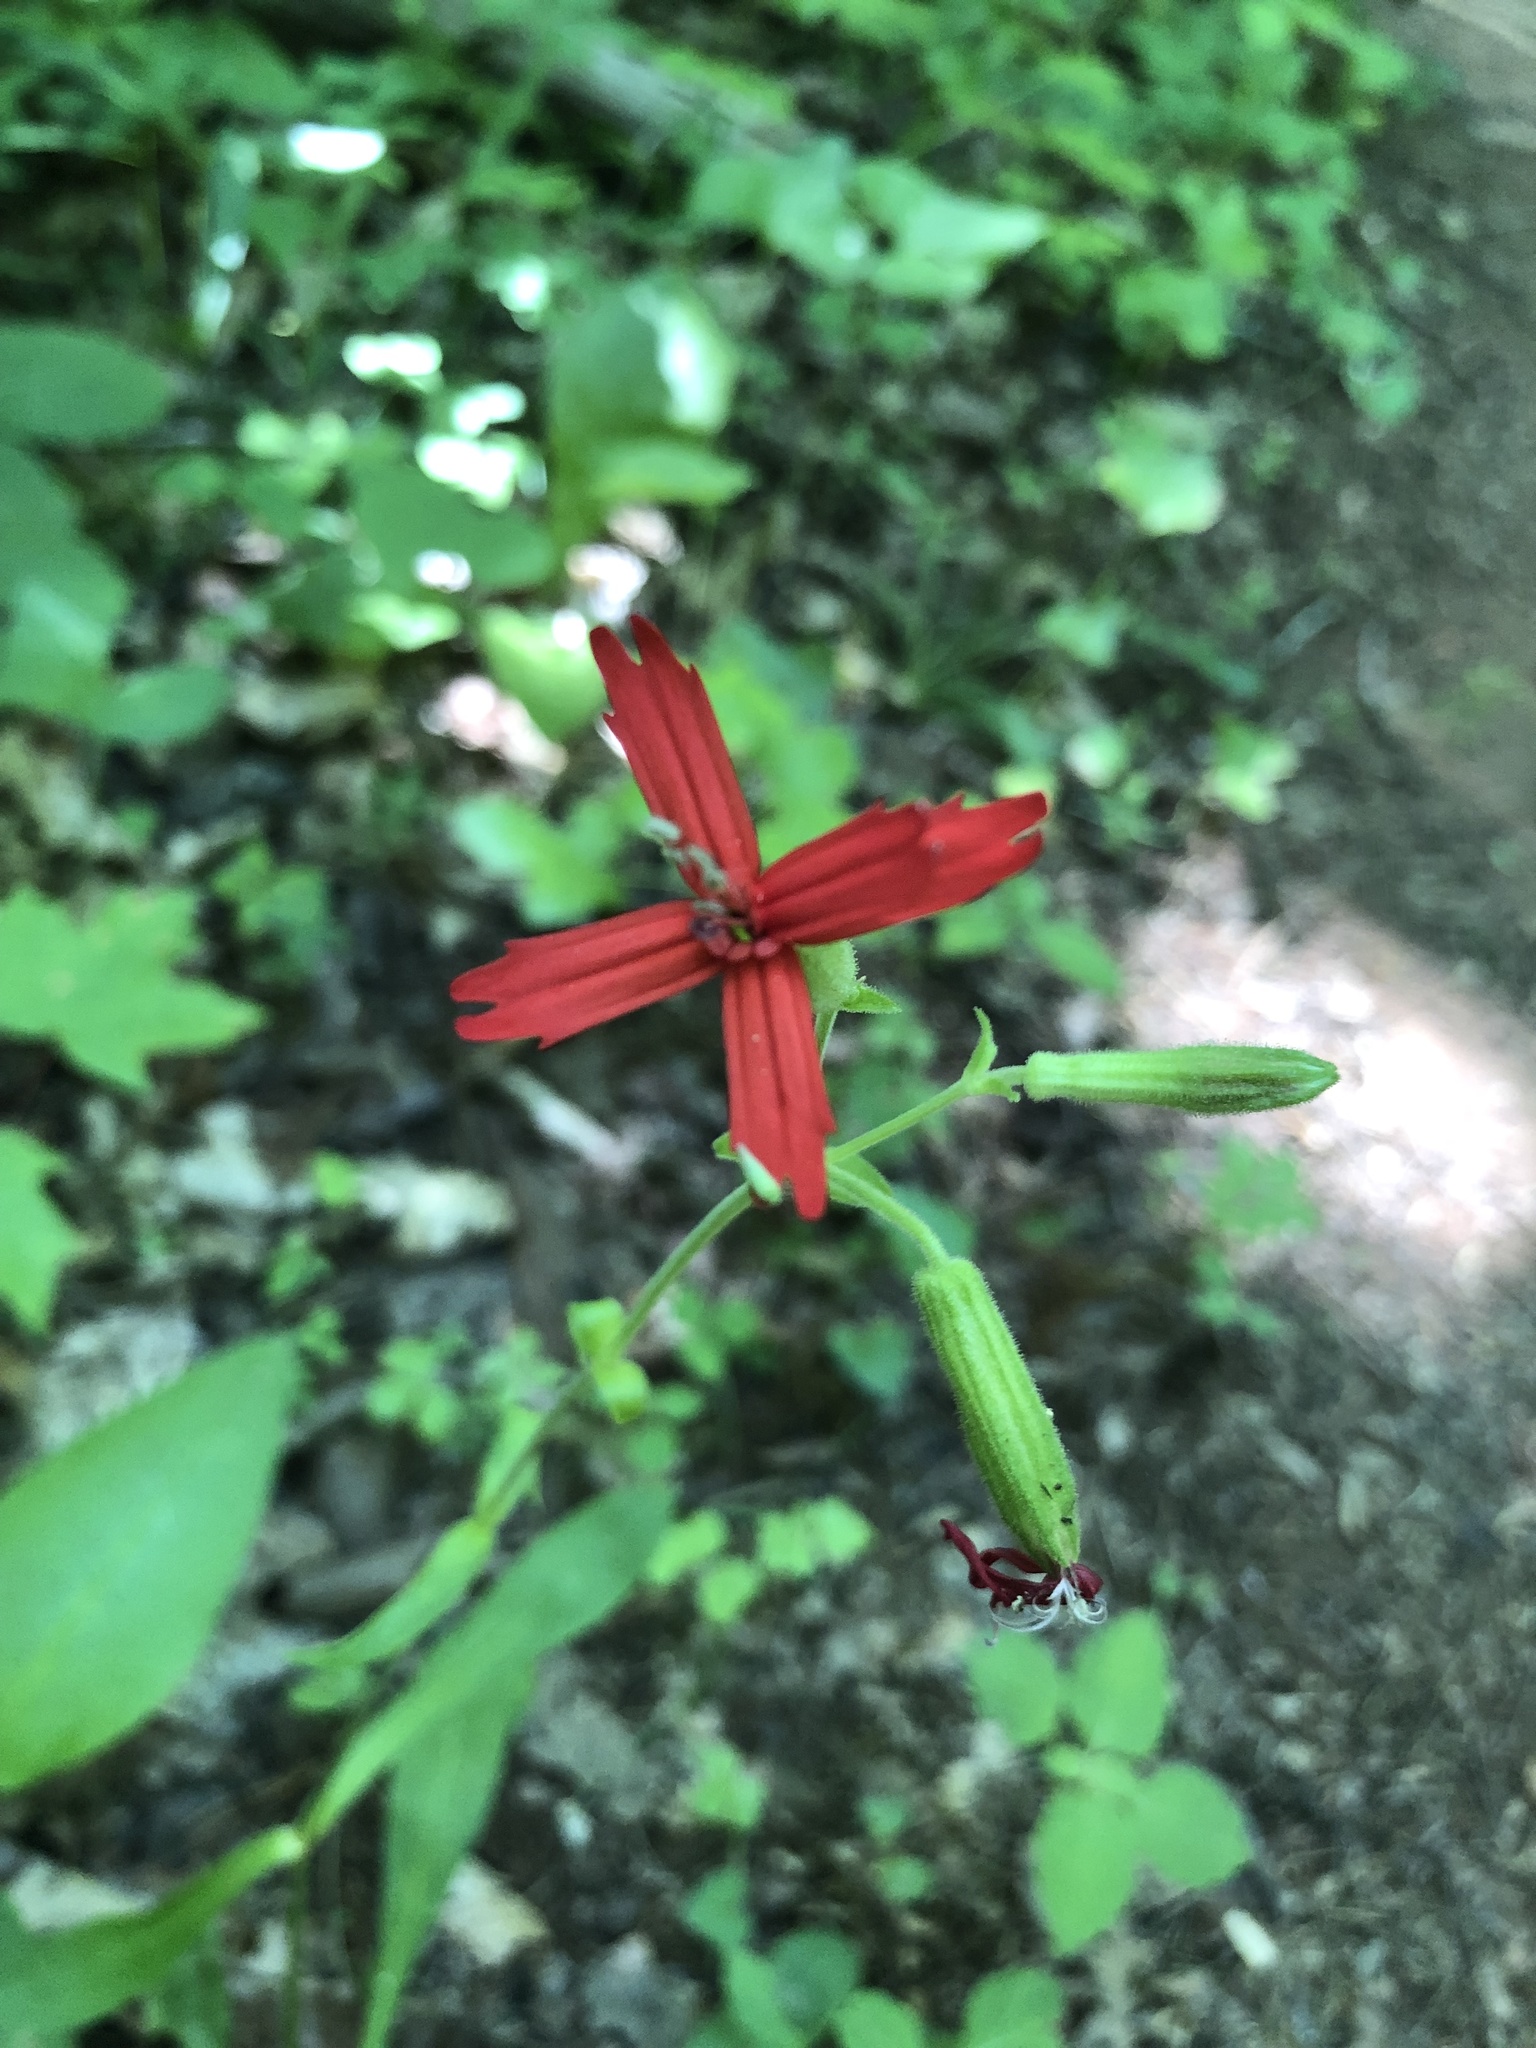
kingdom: Plantae
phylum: Tracheophyta
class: Magnoliopsida
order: Caryophyllales
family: Caryophyllaceae
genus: Silene
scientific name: Silene virginica
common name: Fire-pink
